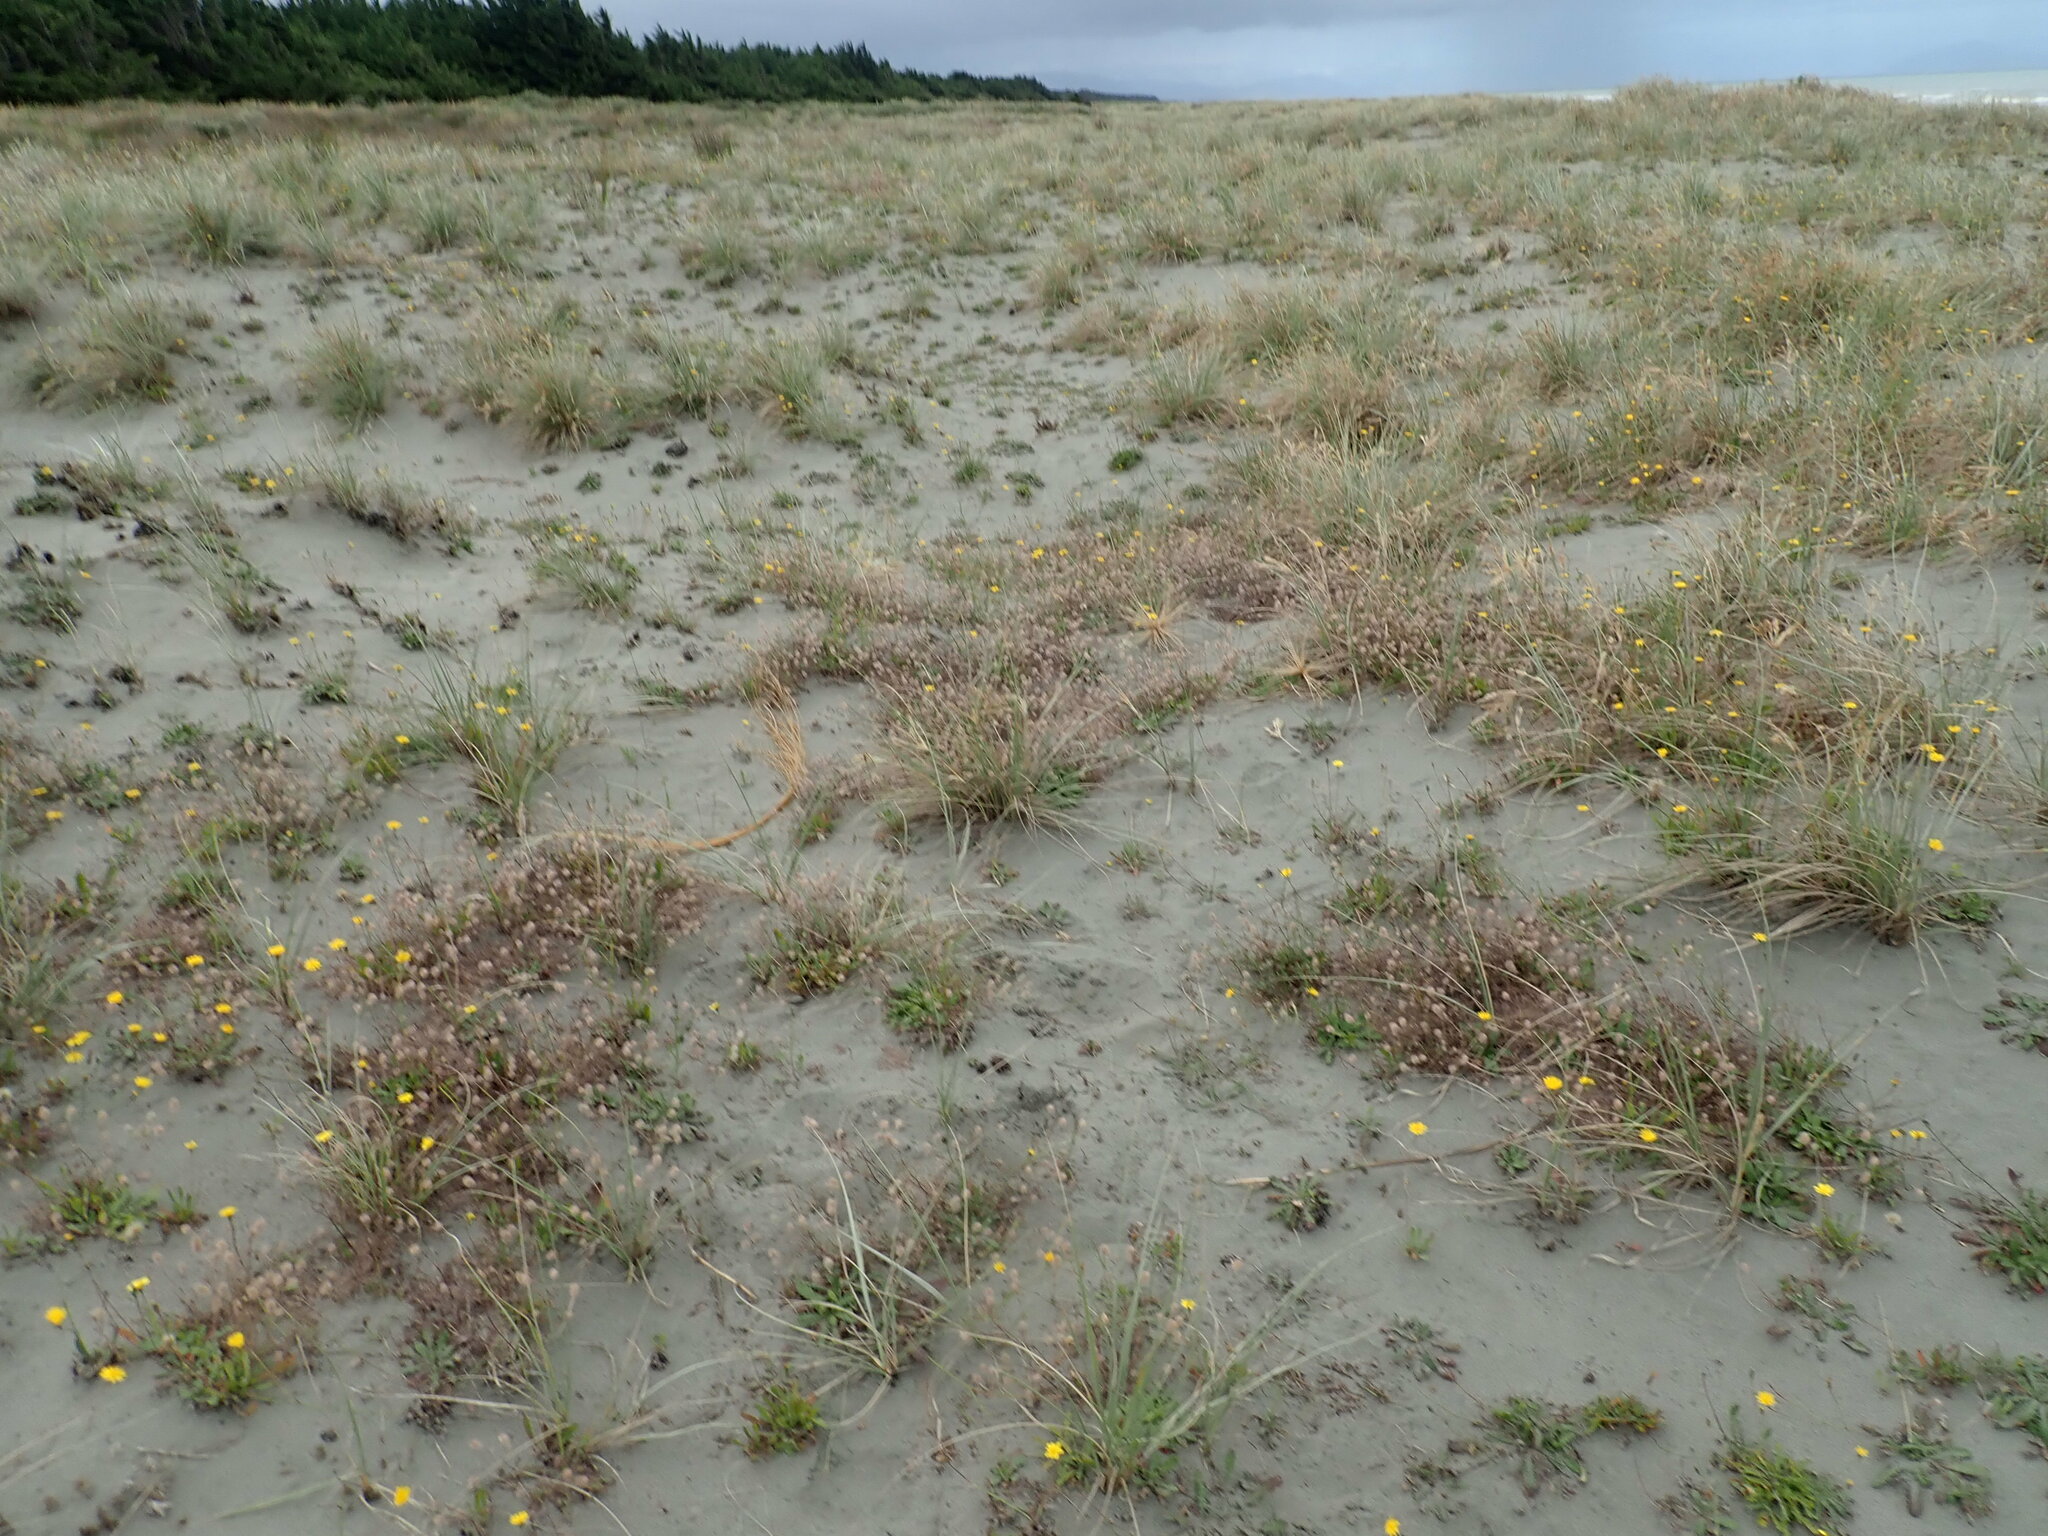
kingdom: Plantae
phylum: Tracheophyta
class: Magnoliopsida
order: Fabales
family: Fabaceae
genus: Trifolium
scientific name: Trifolium arvense
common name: Hare's-foot clover
